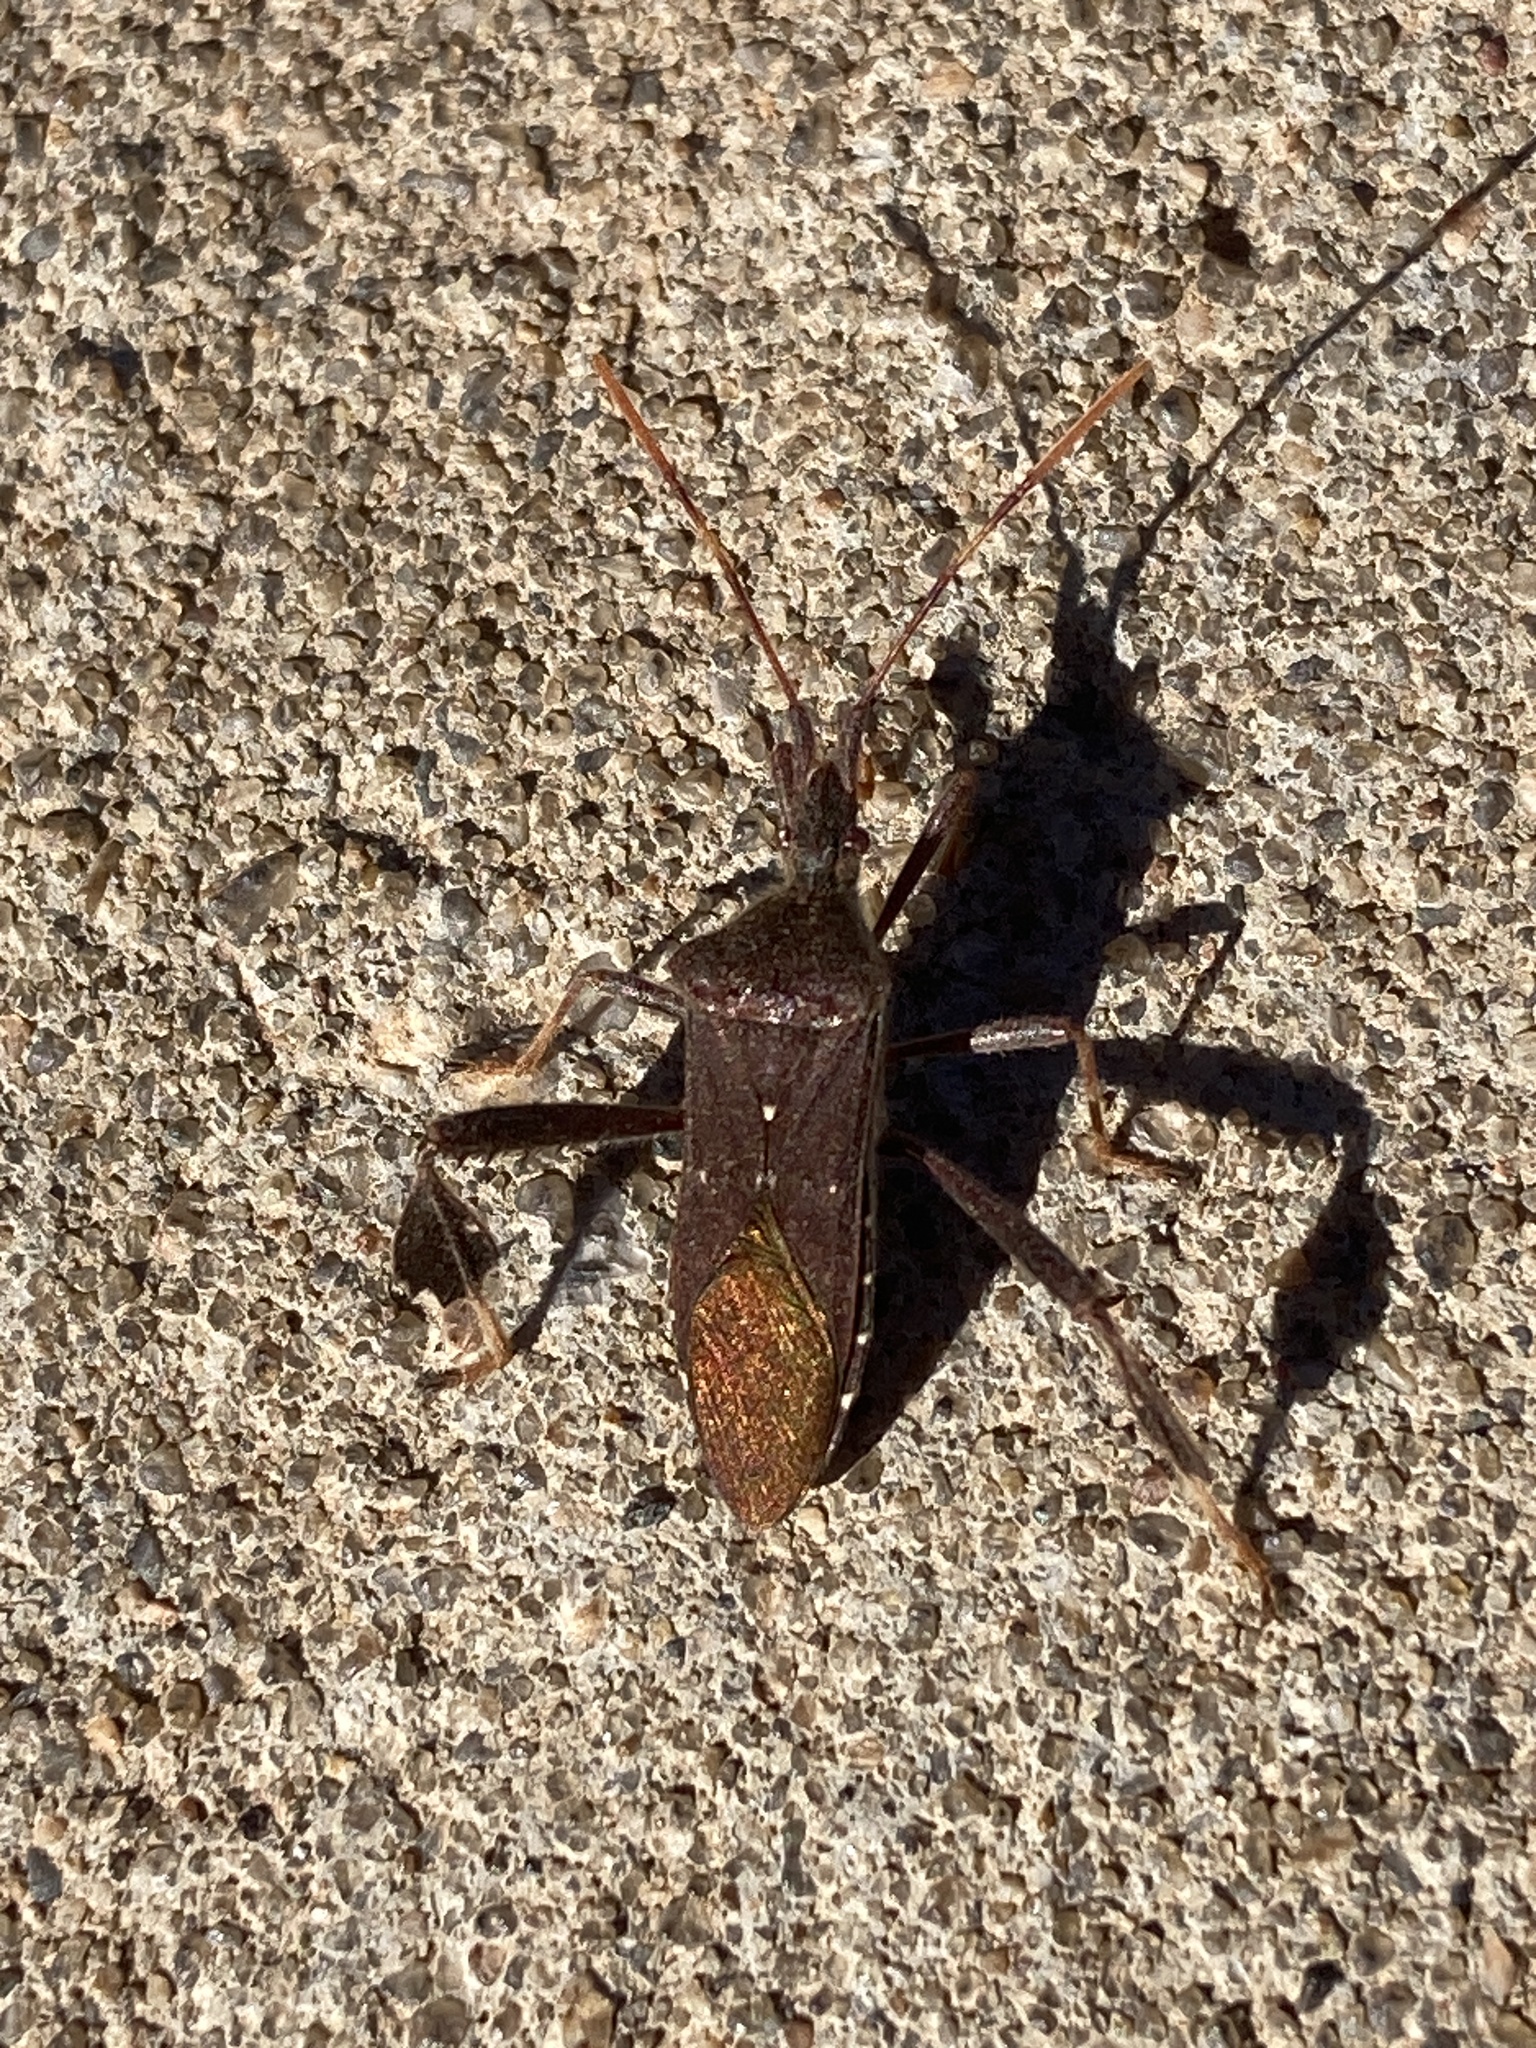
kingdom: Animalia
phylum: Arthropoda
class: Insecta
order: Hemiptera
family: Coreidae
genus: Leptoglossus
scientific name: Leptoglossus oppositus
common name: Northern leaf-footed bug
